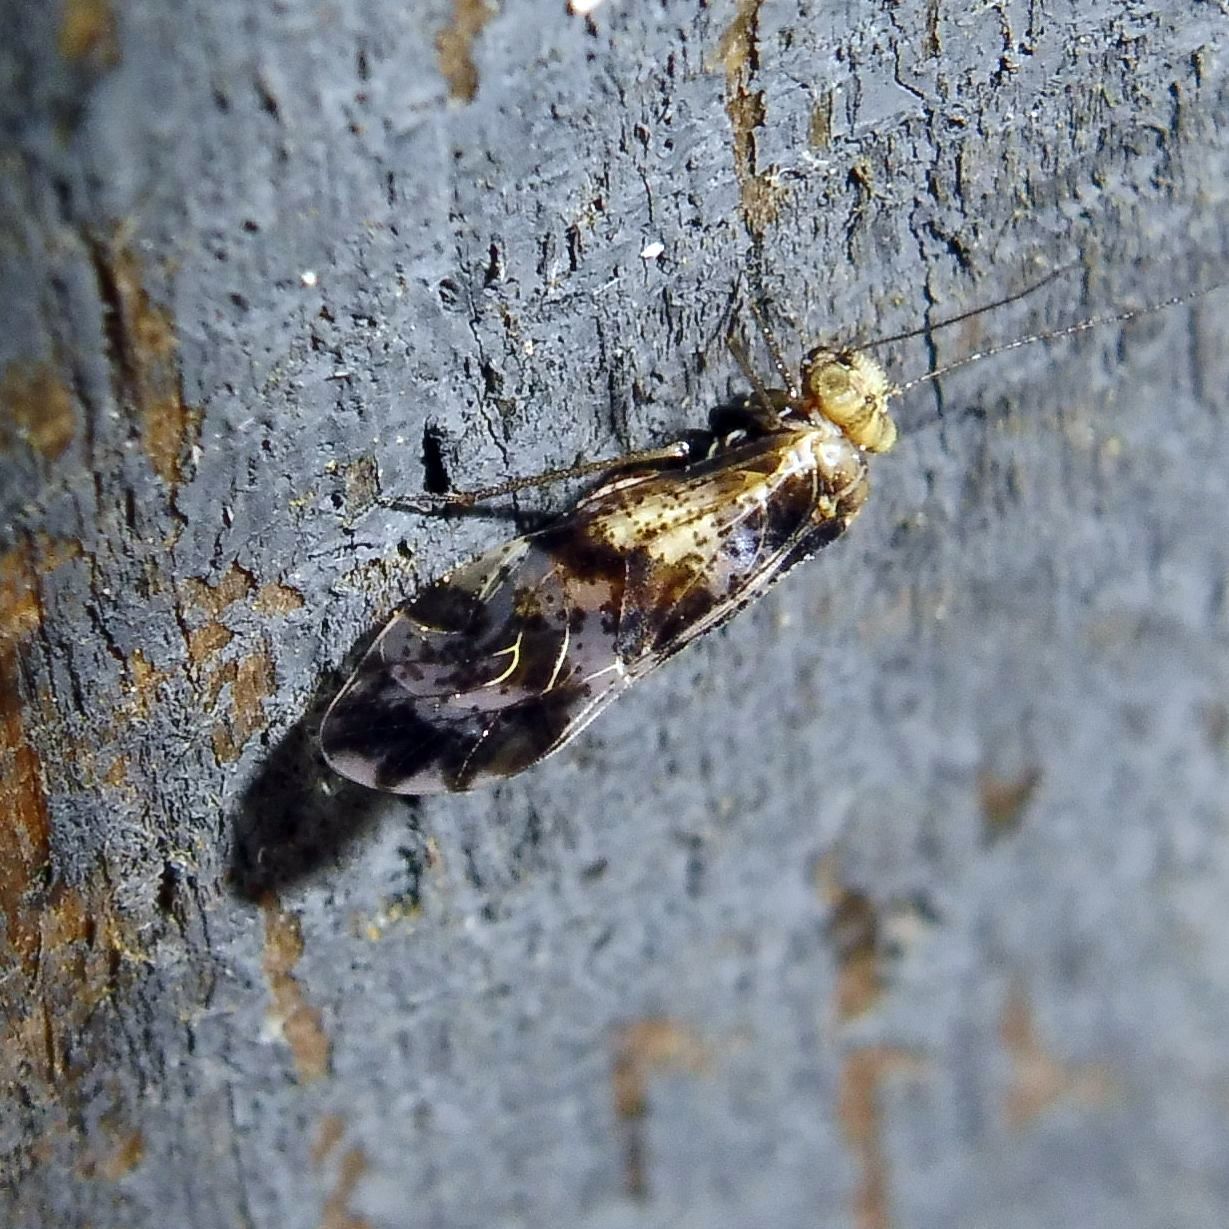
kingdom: Animalia
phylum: Arthropoda
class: Insecta
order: Psocodea
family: Psocidae
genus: Loensia
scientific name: Loensia fasciata
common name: Common bark louse
